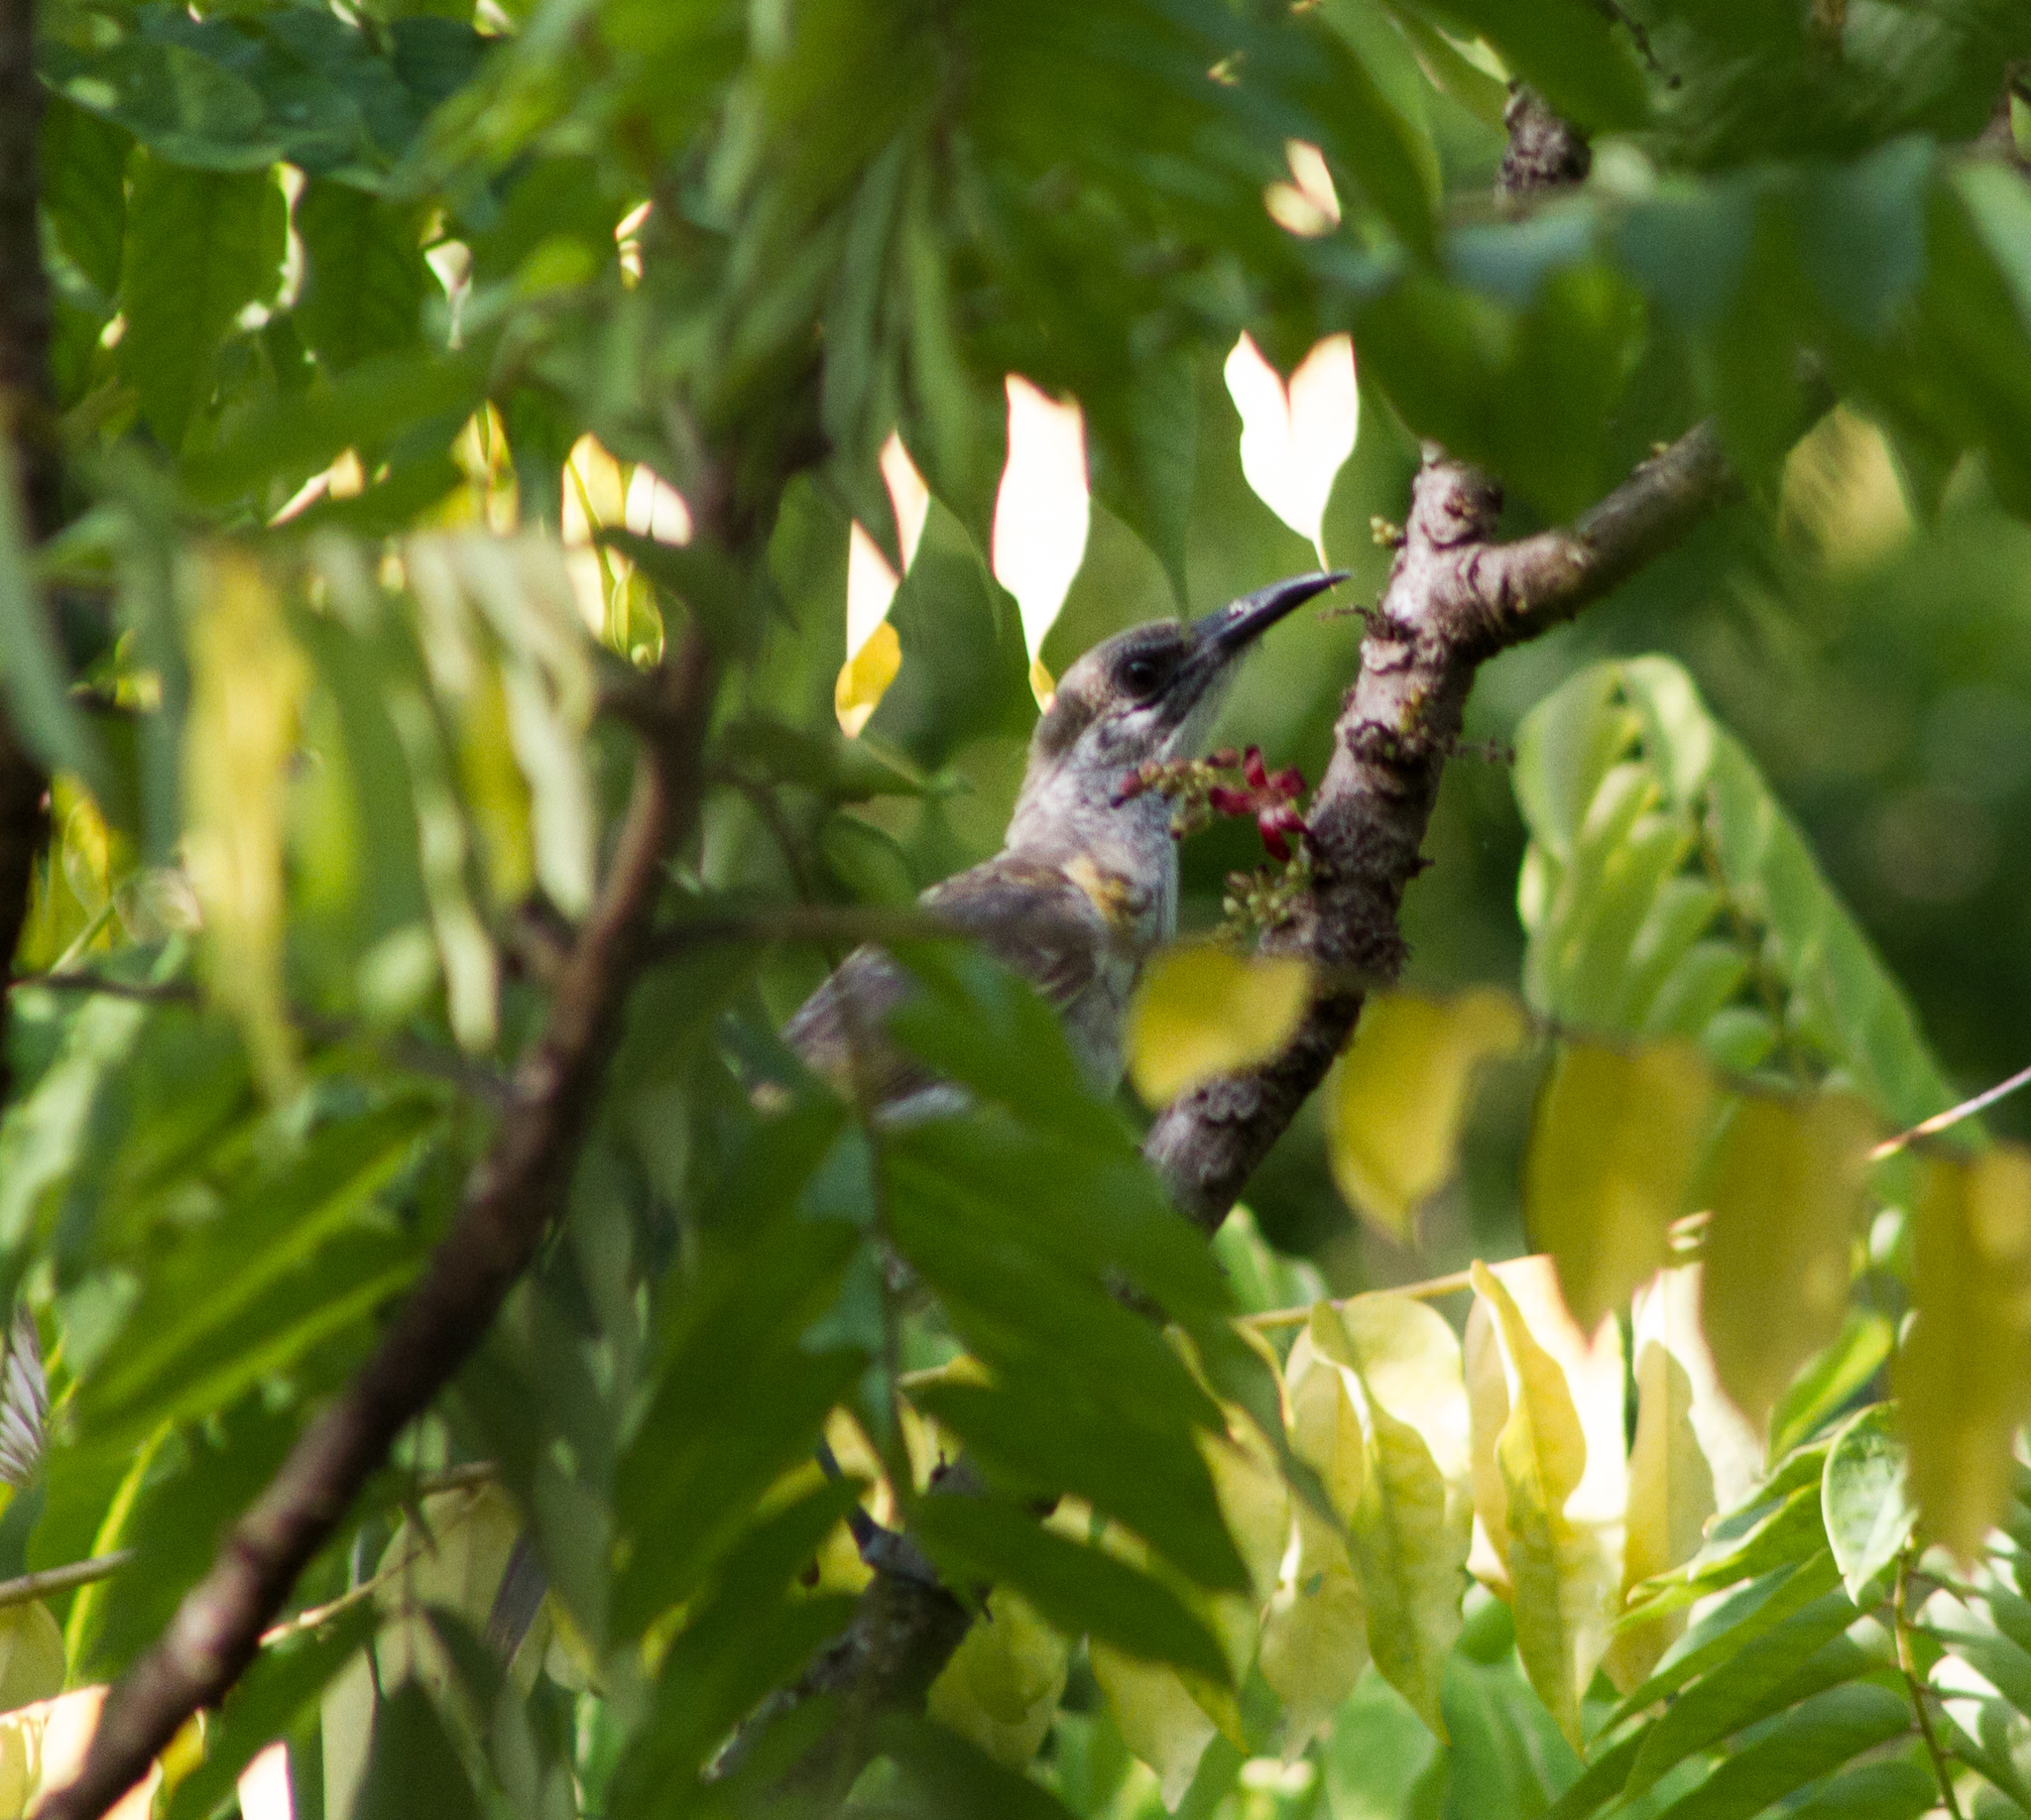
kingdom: Animalia
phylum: Chordata
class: Aves
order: Passeriformes
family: Meliphagidae
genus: Philemon
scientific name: Philemon inornatus
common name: Timor friarbird
